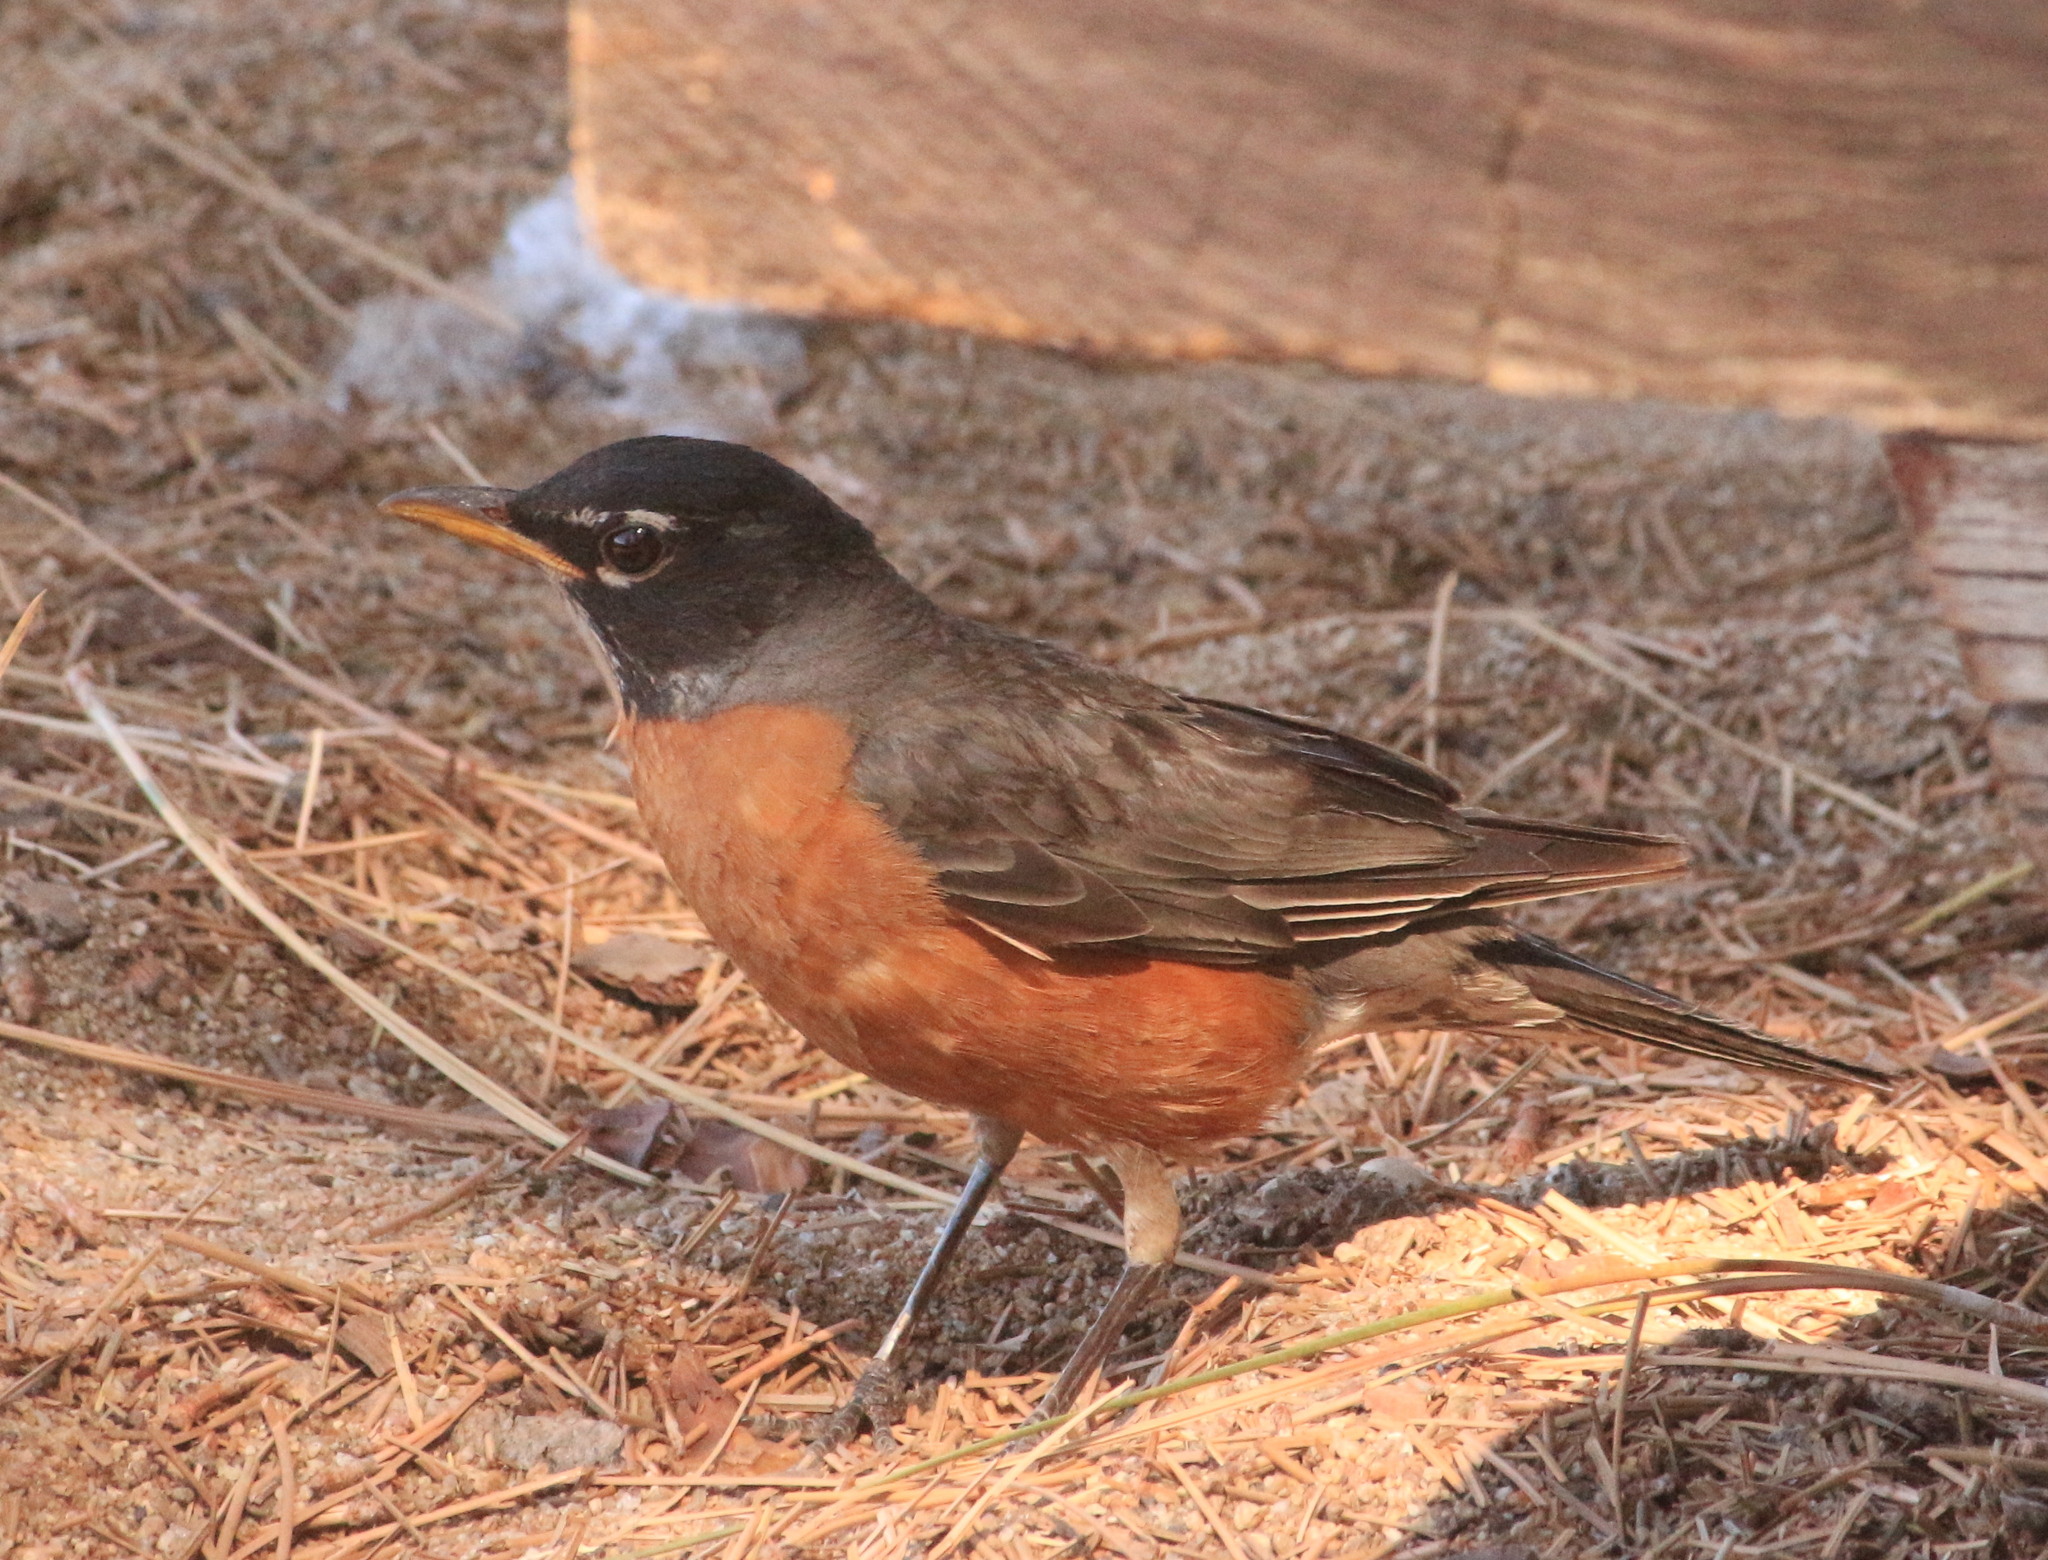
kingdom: Animalia
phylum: Chordata
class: Aves
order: Passeriformes
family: Turdidae
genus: Turdus
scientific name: Turdus migratorius
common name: American robin
